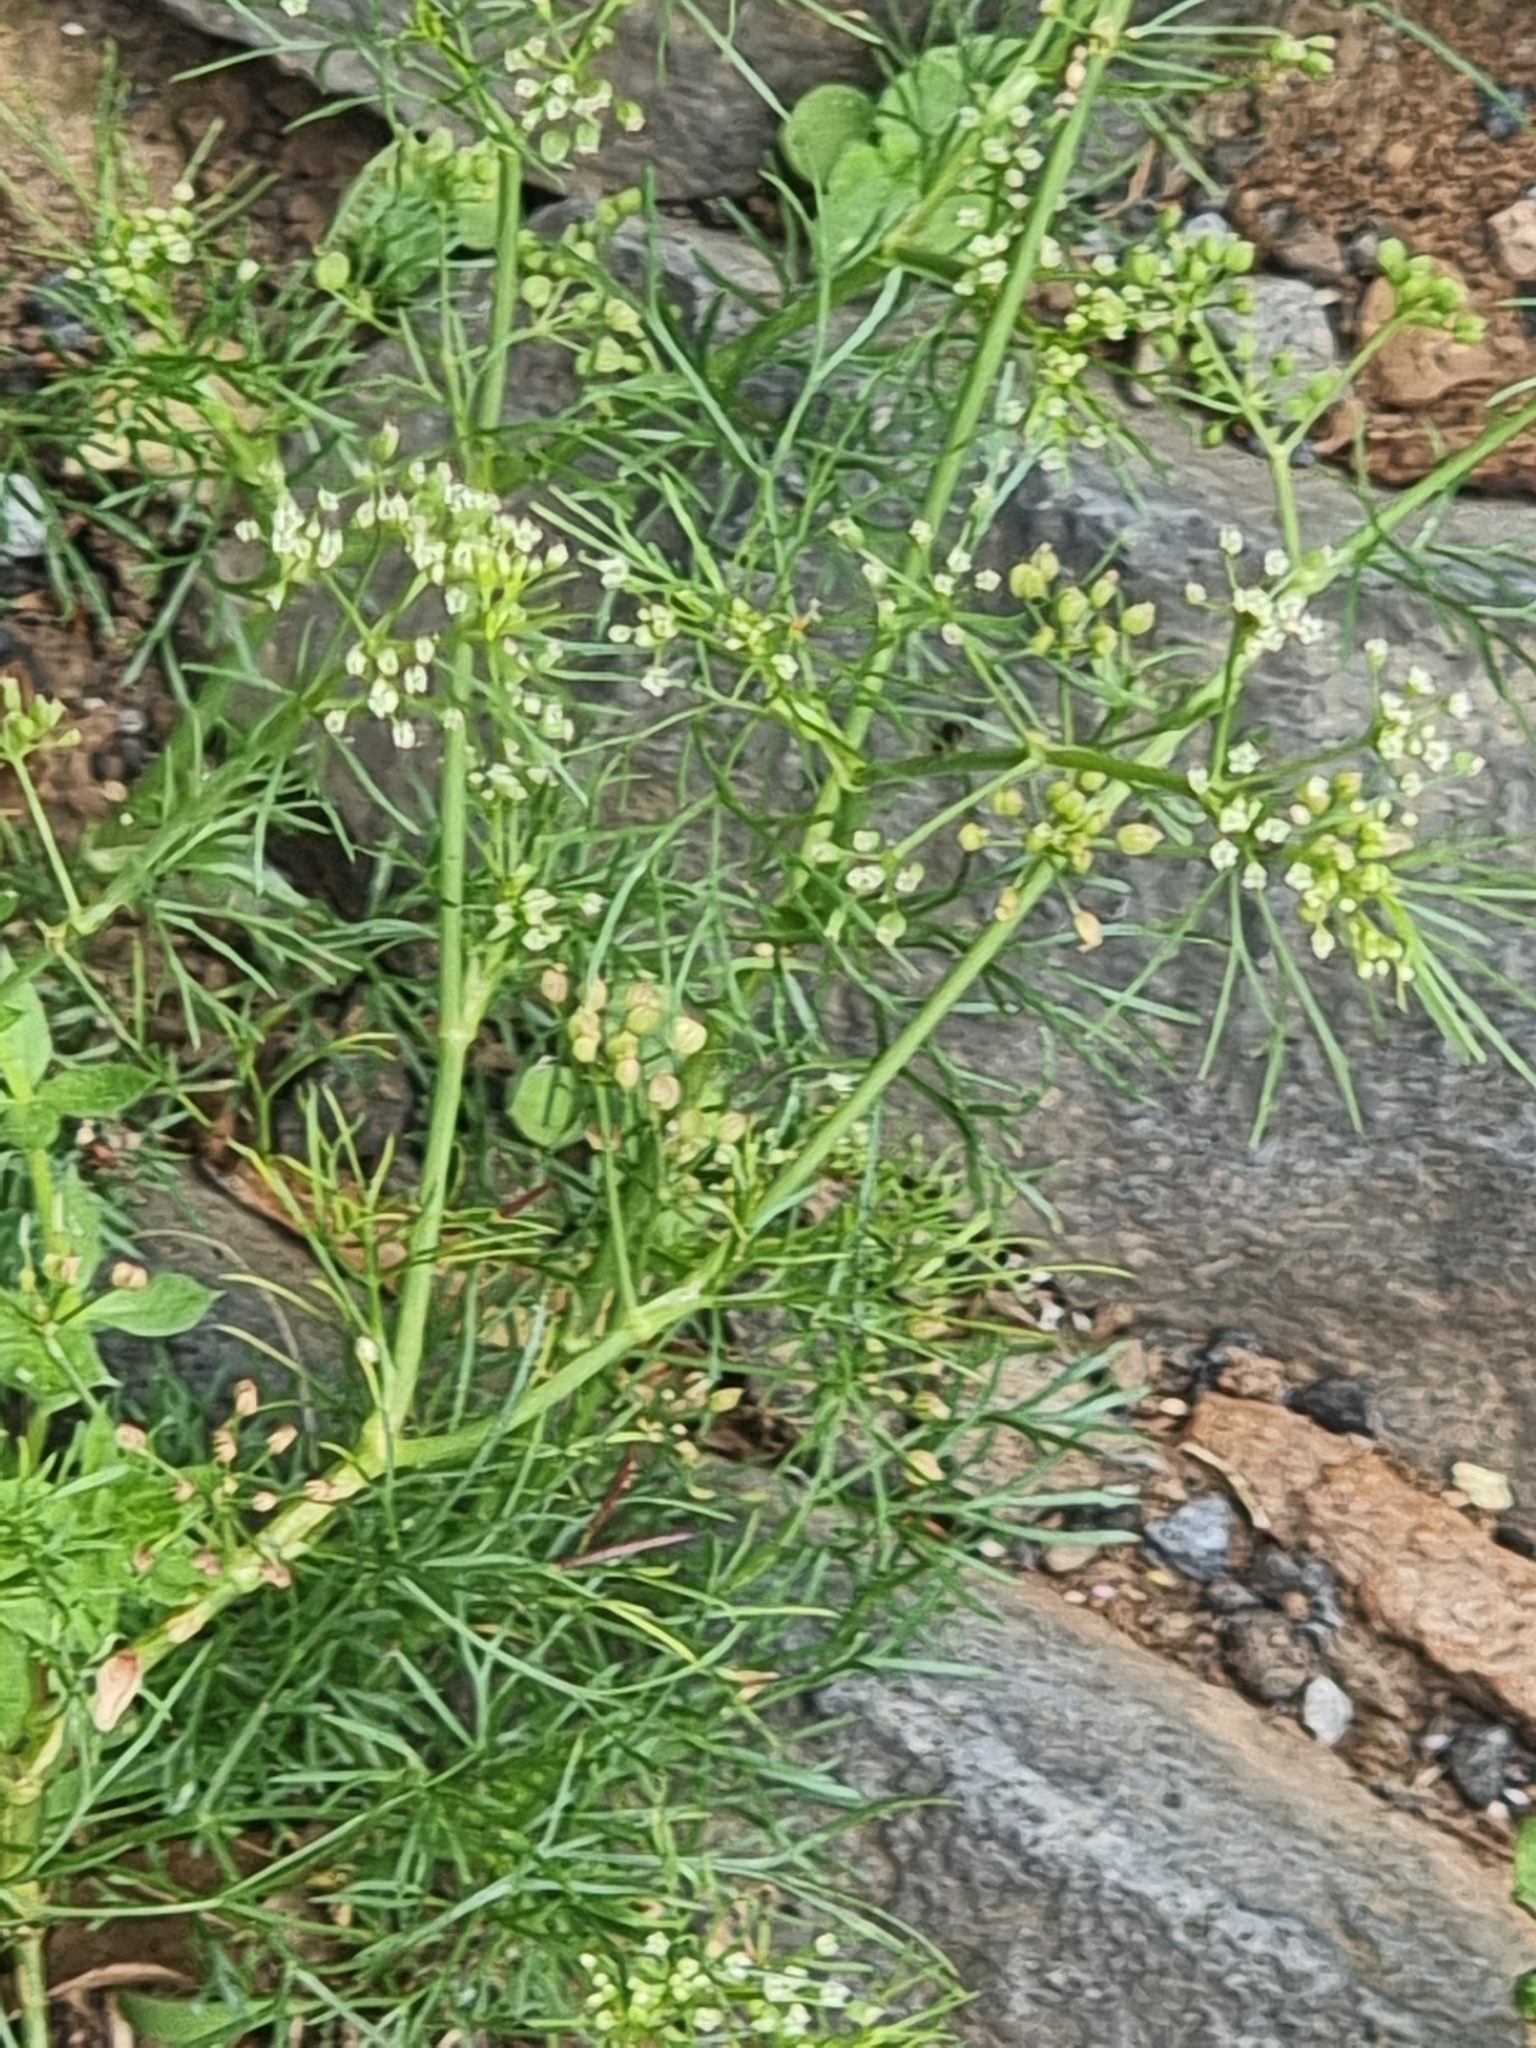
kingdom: Plantae
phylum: Tracheophyta
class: Magnoliopsida
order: Apiales
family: Apiaceae
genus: Cyclospermum
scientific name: Cyclospermum leptophyllum
